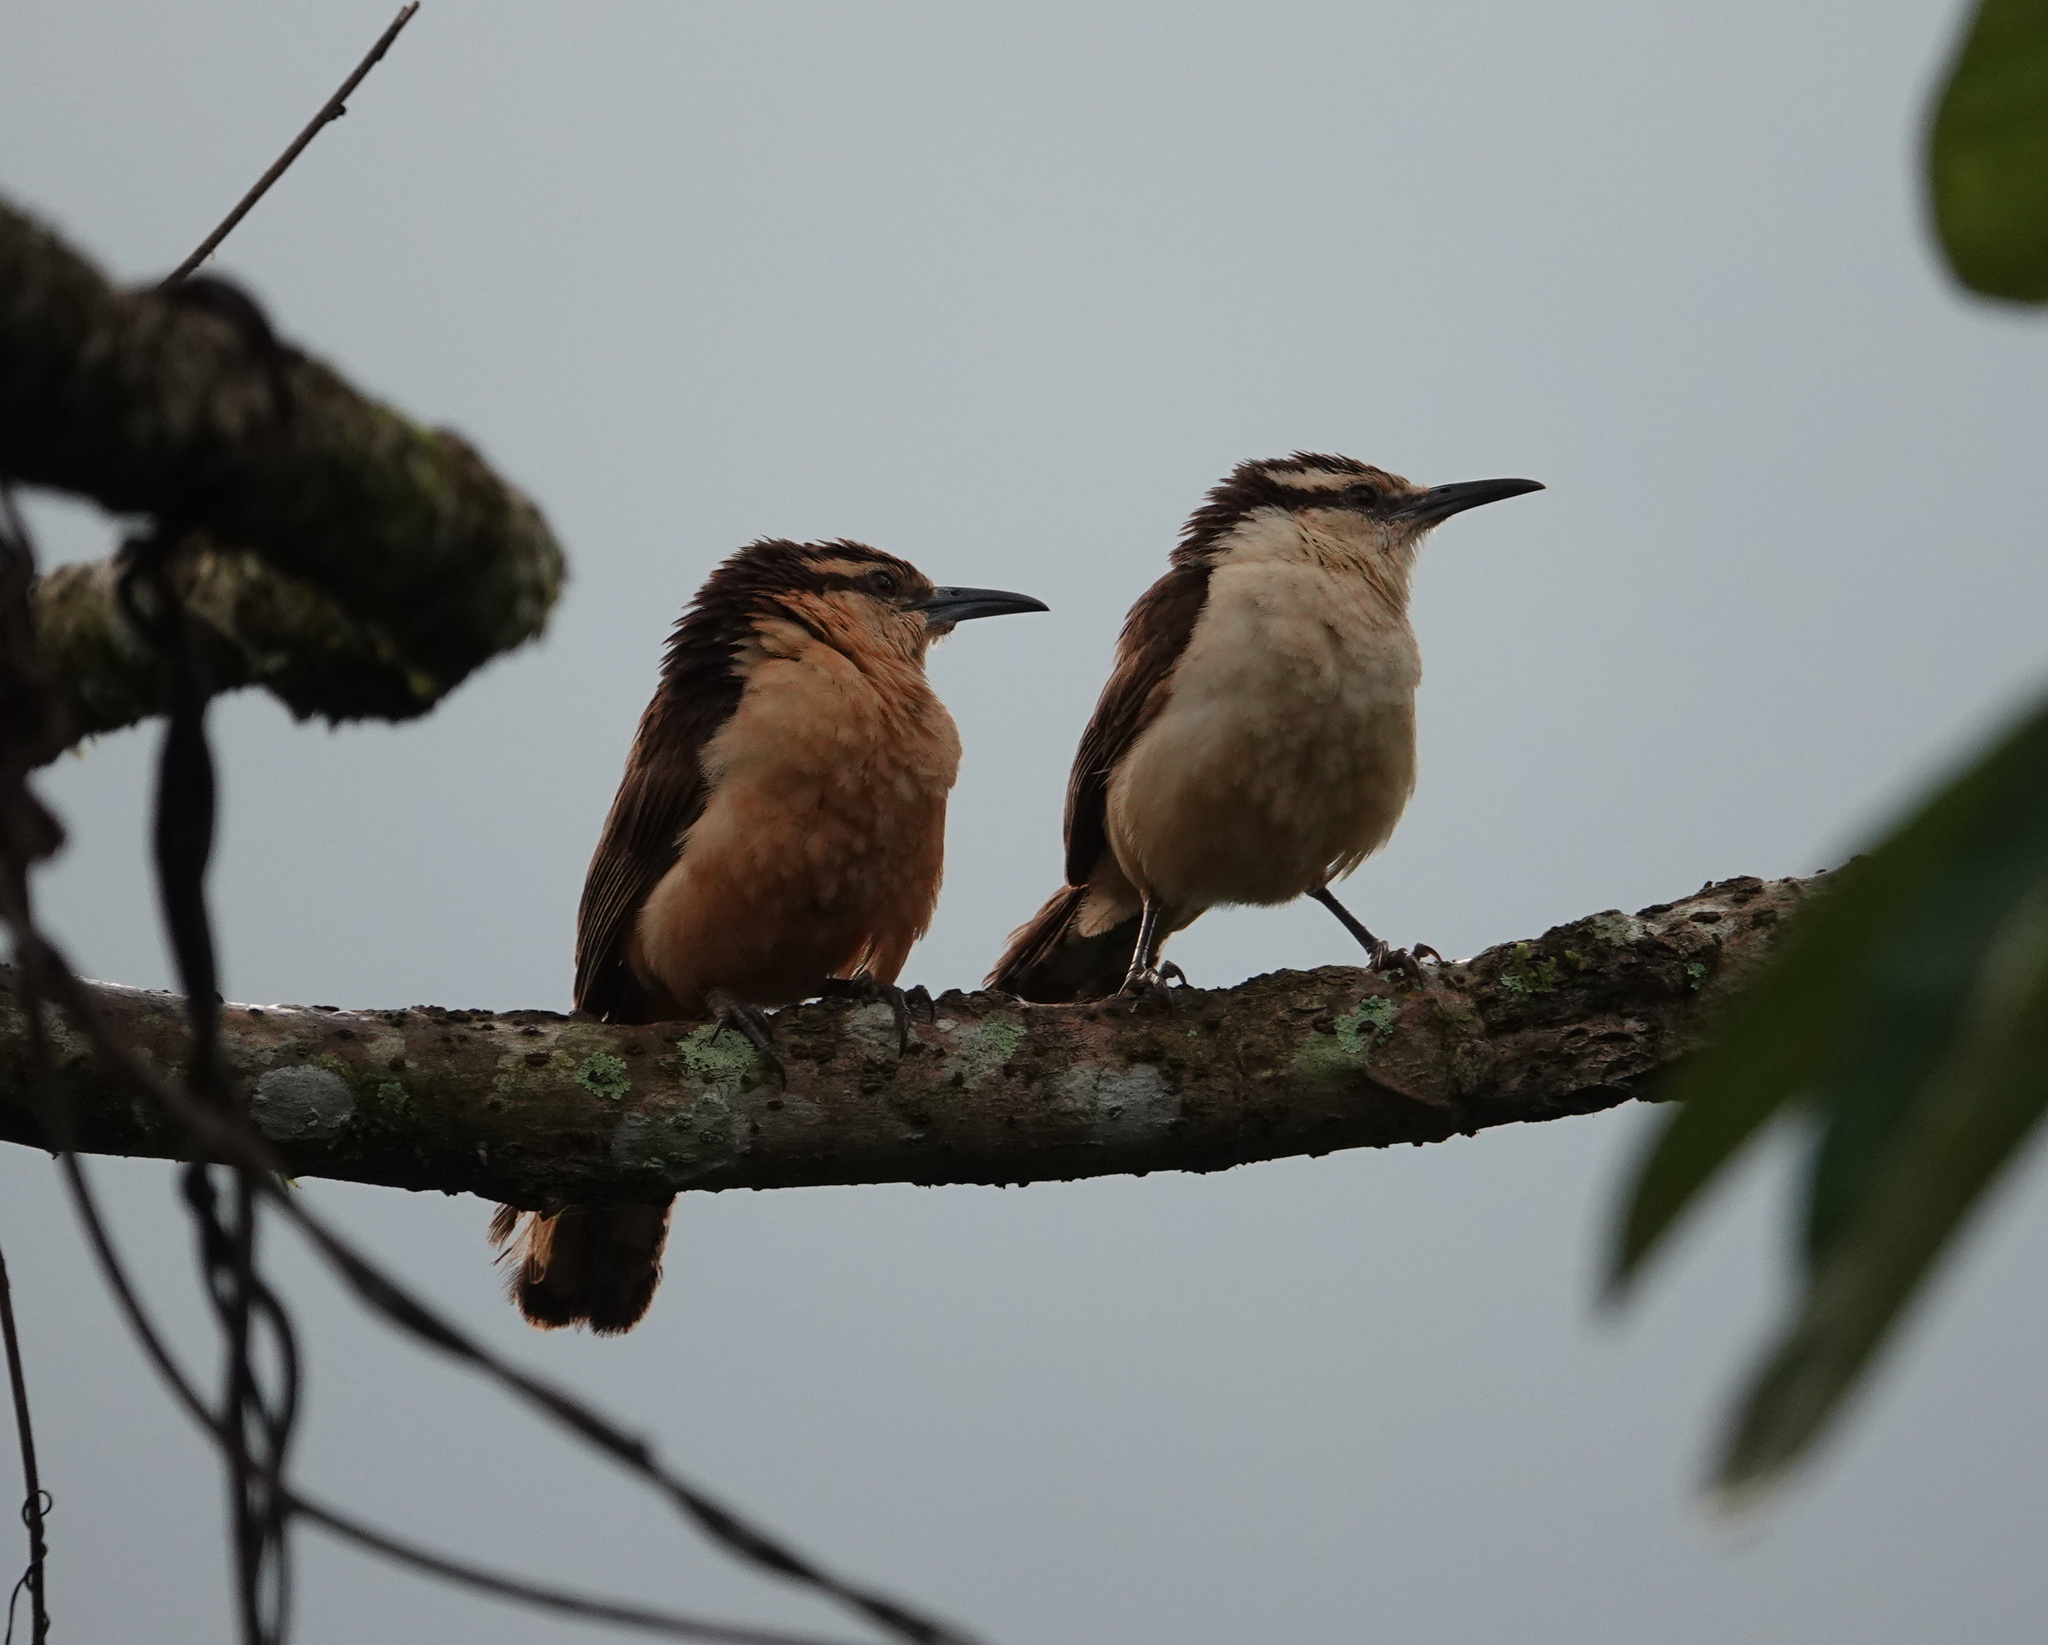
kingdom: Animalia
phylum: Chordata
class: Aves
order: Passeriformes
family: Troglodytidae
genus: Campylorhynchus
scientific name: Campylorhynchus griseus
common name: Bicolored wren
